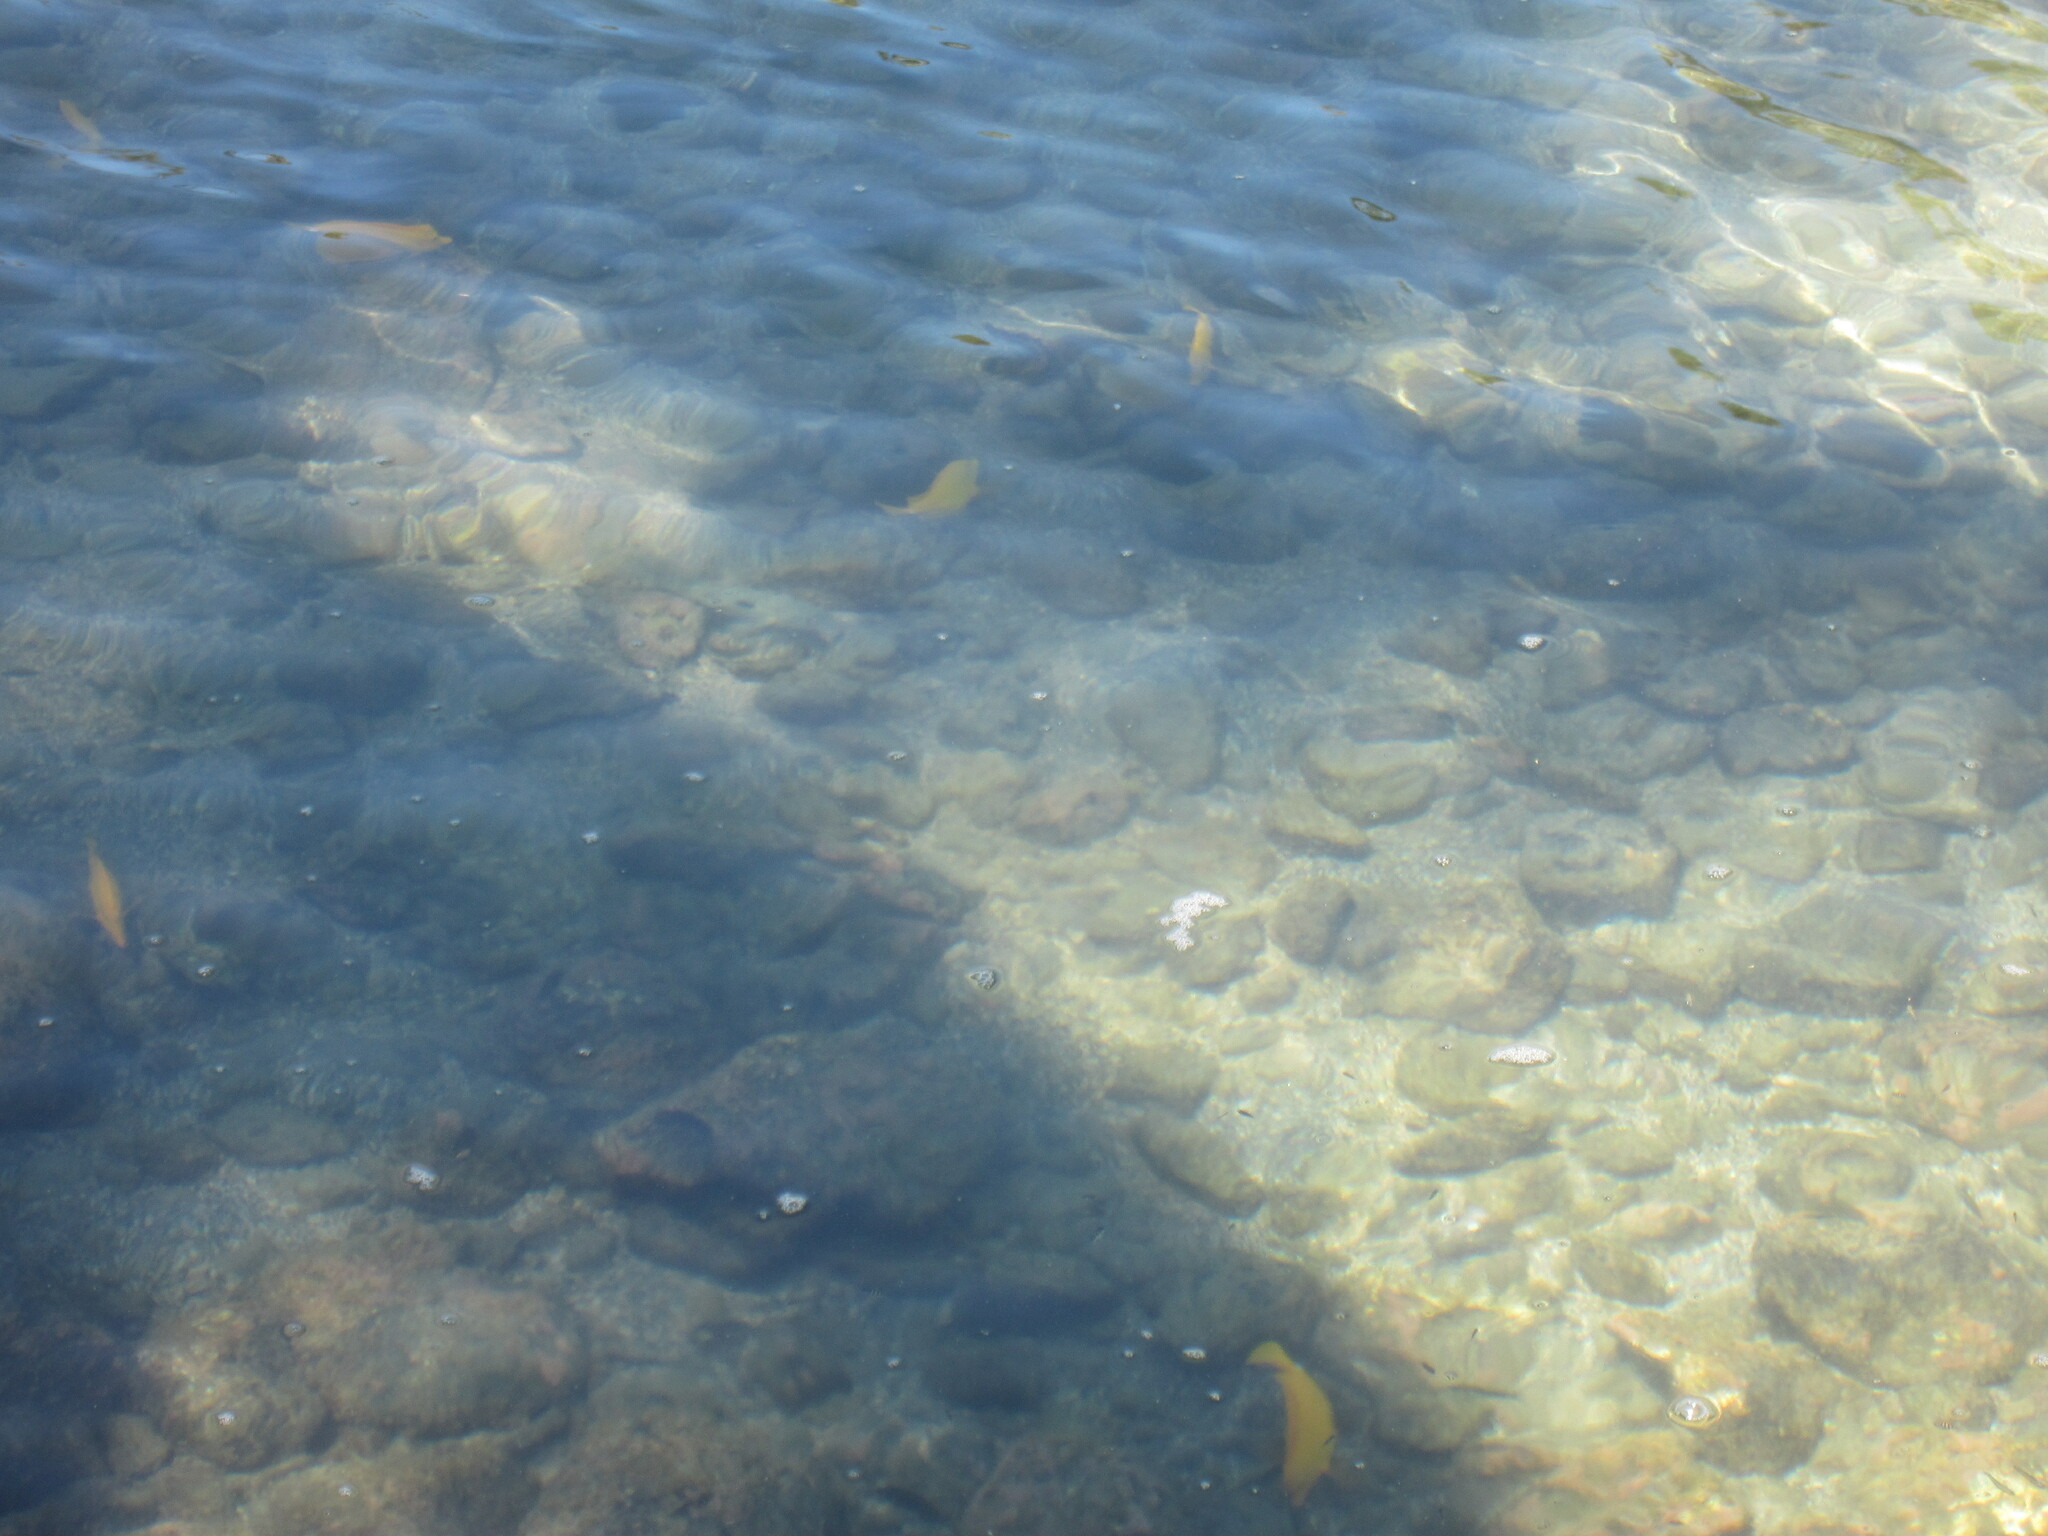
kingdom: Animalia
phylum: Chordata
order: Perciformes
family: Acanthuridae
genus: Zebrasoma
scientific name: Zebrasoma flavescens
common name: Yellow tang
